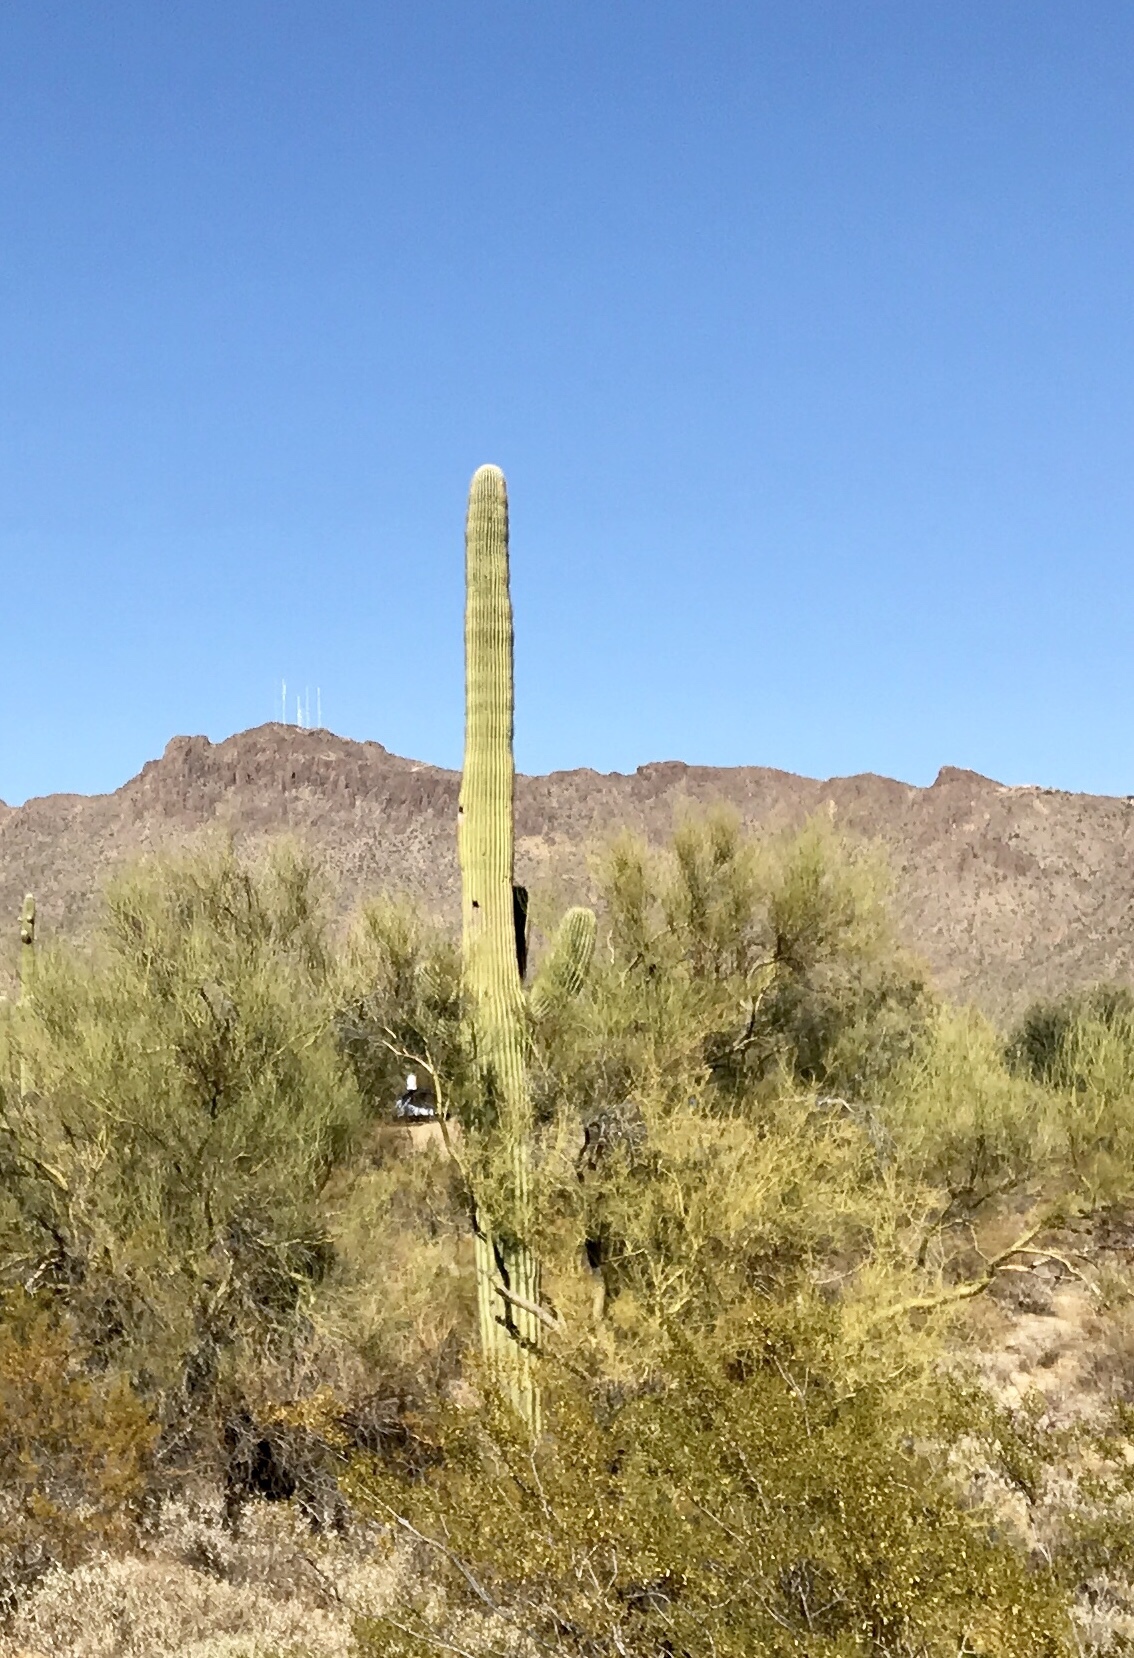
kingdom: Plantae
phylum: Tracheophyta
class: Magnoliopsida
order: Caryophyllales
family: Cactaceae
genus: Carnegiea
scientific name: Carnegiea gigantea
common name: Saguaro
